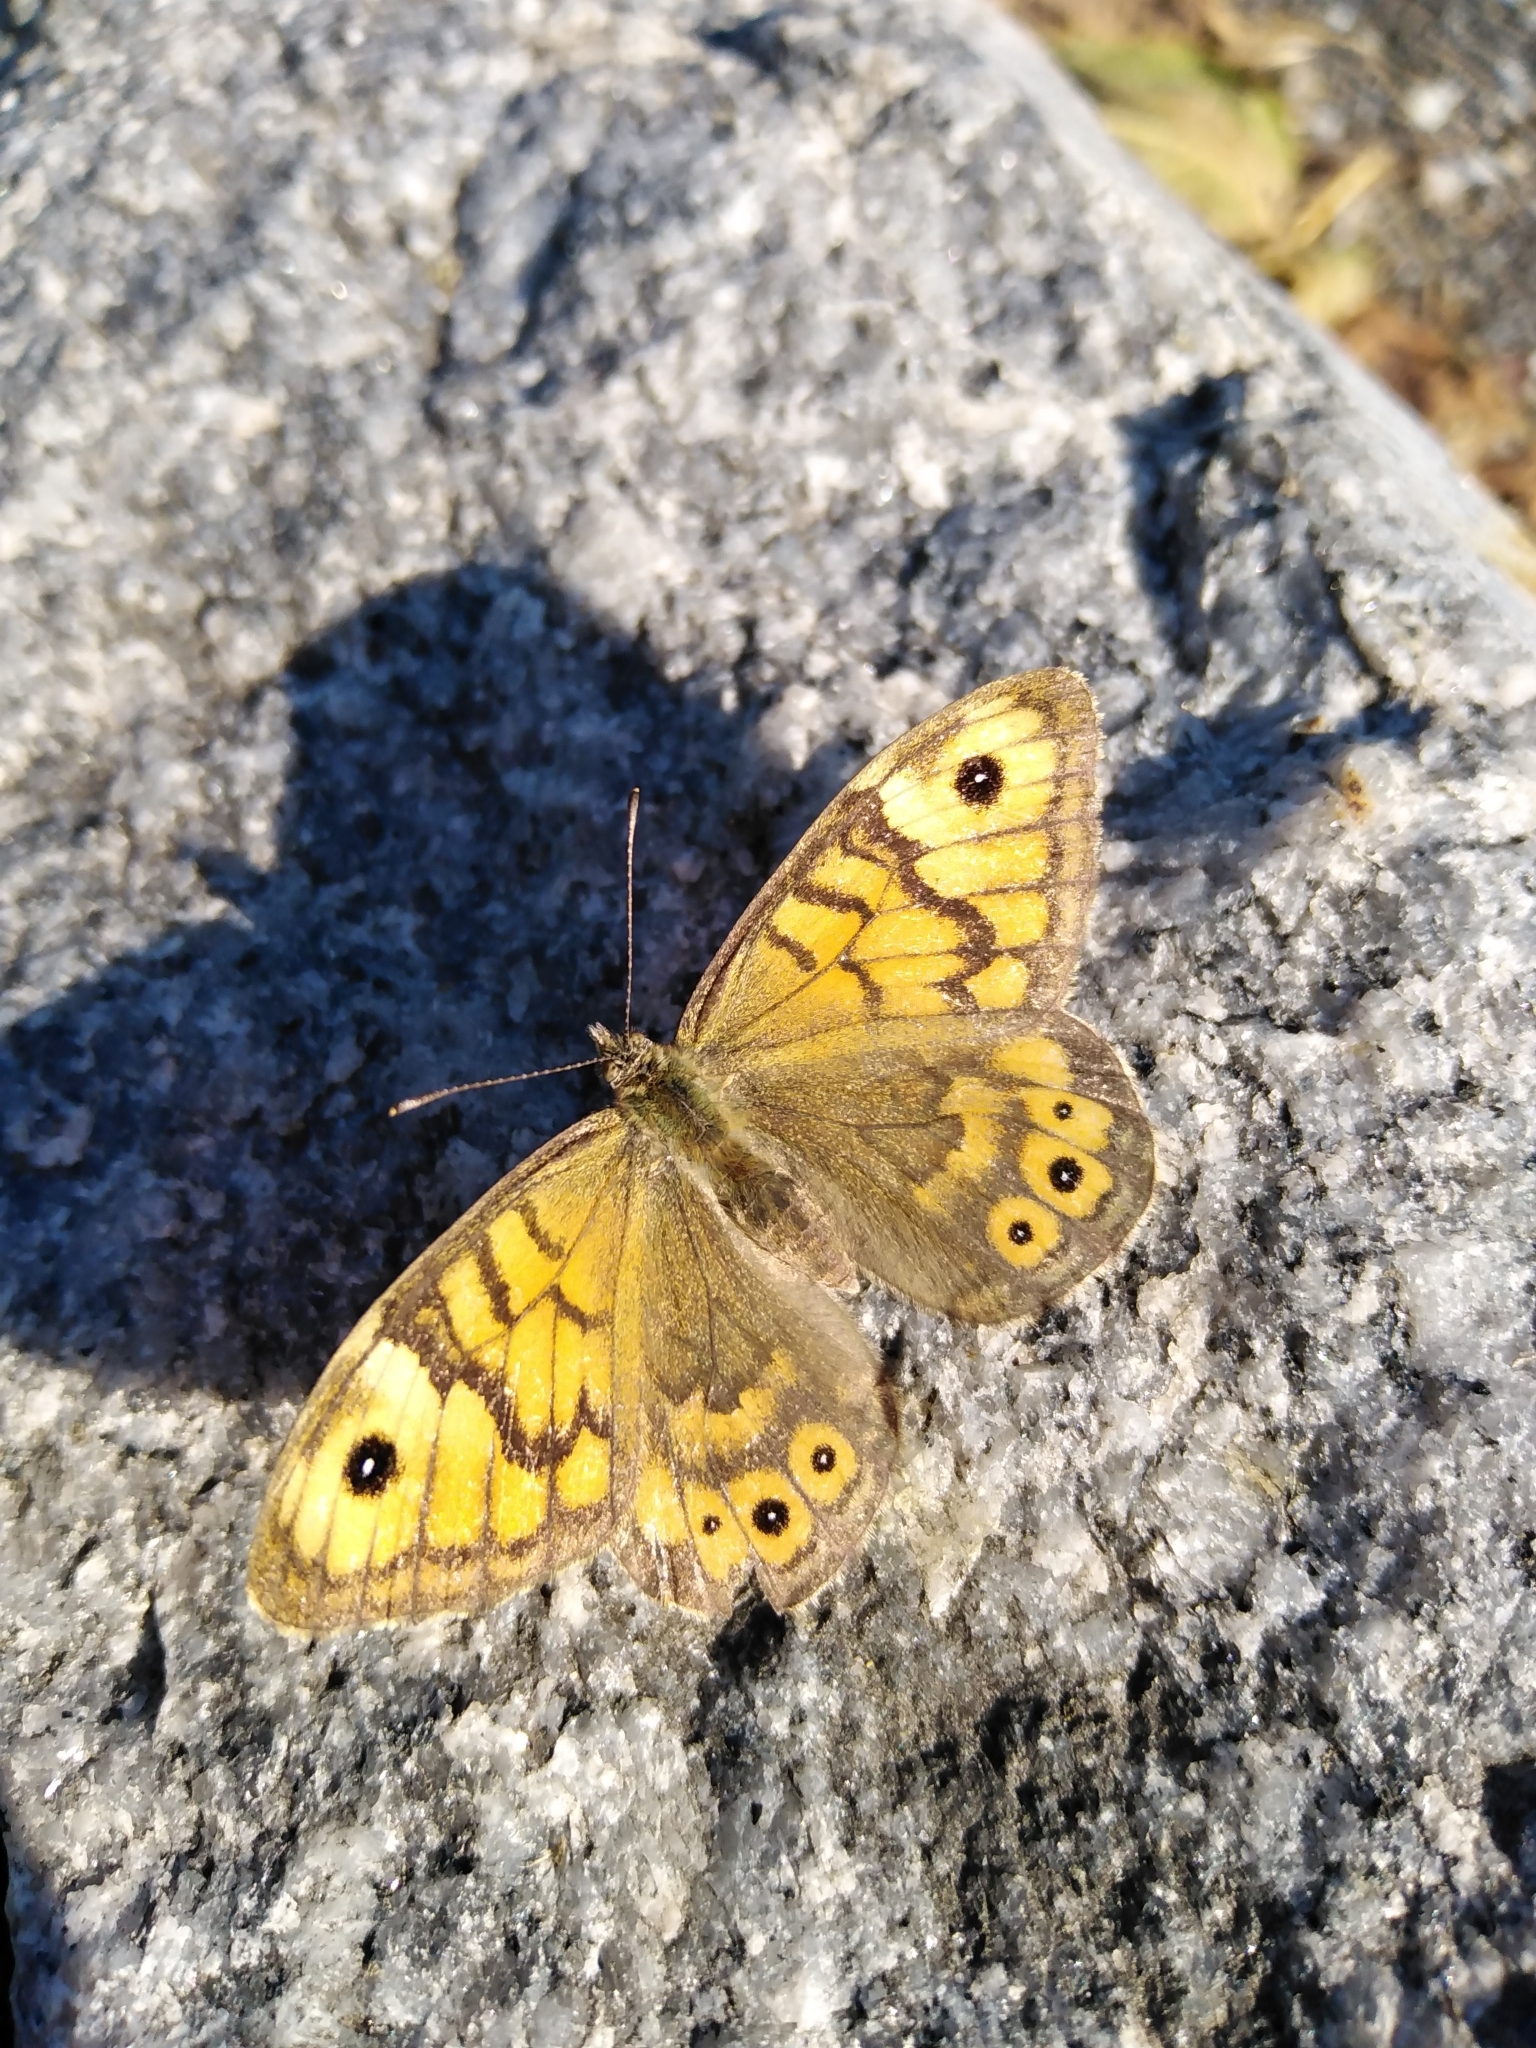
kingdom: Animalia
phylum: Arthropoda
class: Insecta
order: Lepidoptera
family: Nymphalidae
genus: Pararge
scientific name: Pararge Lasiommata megera
